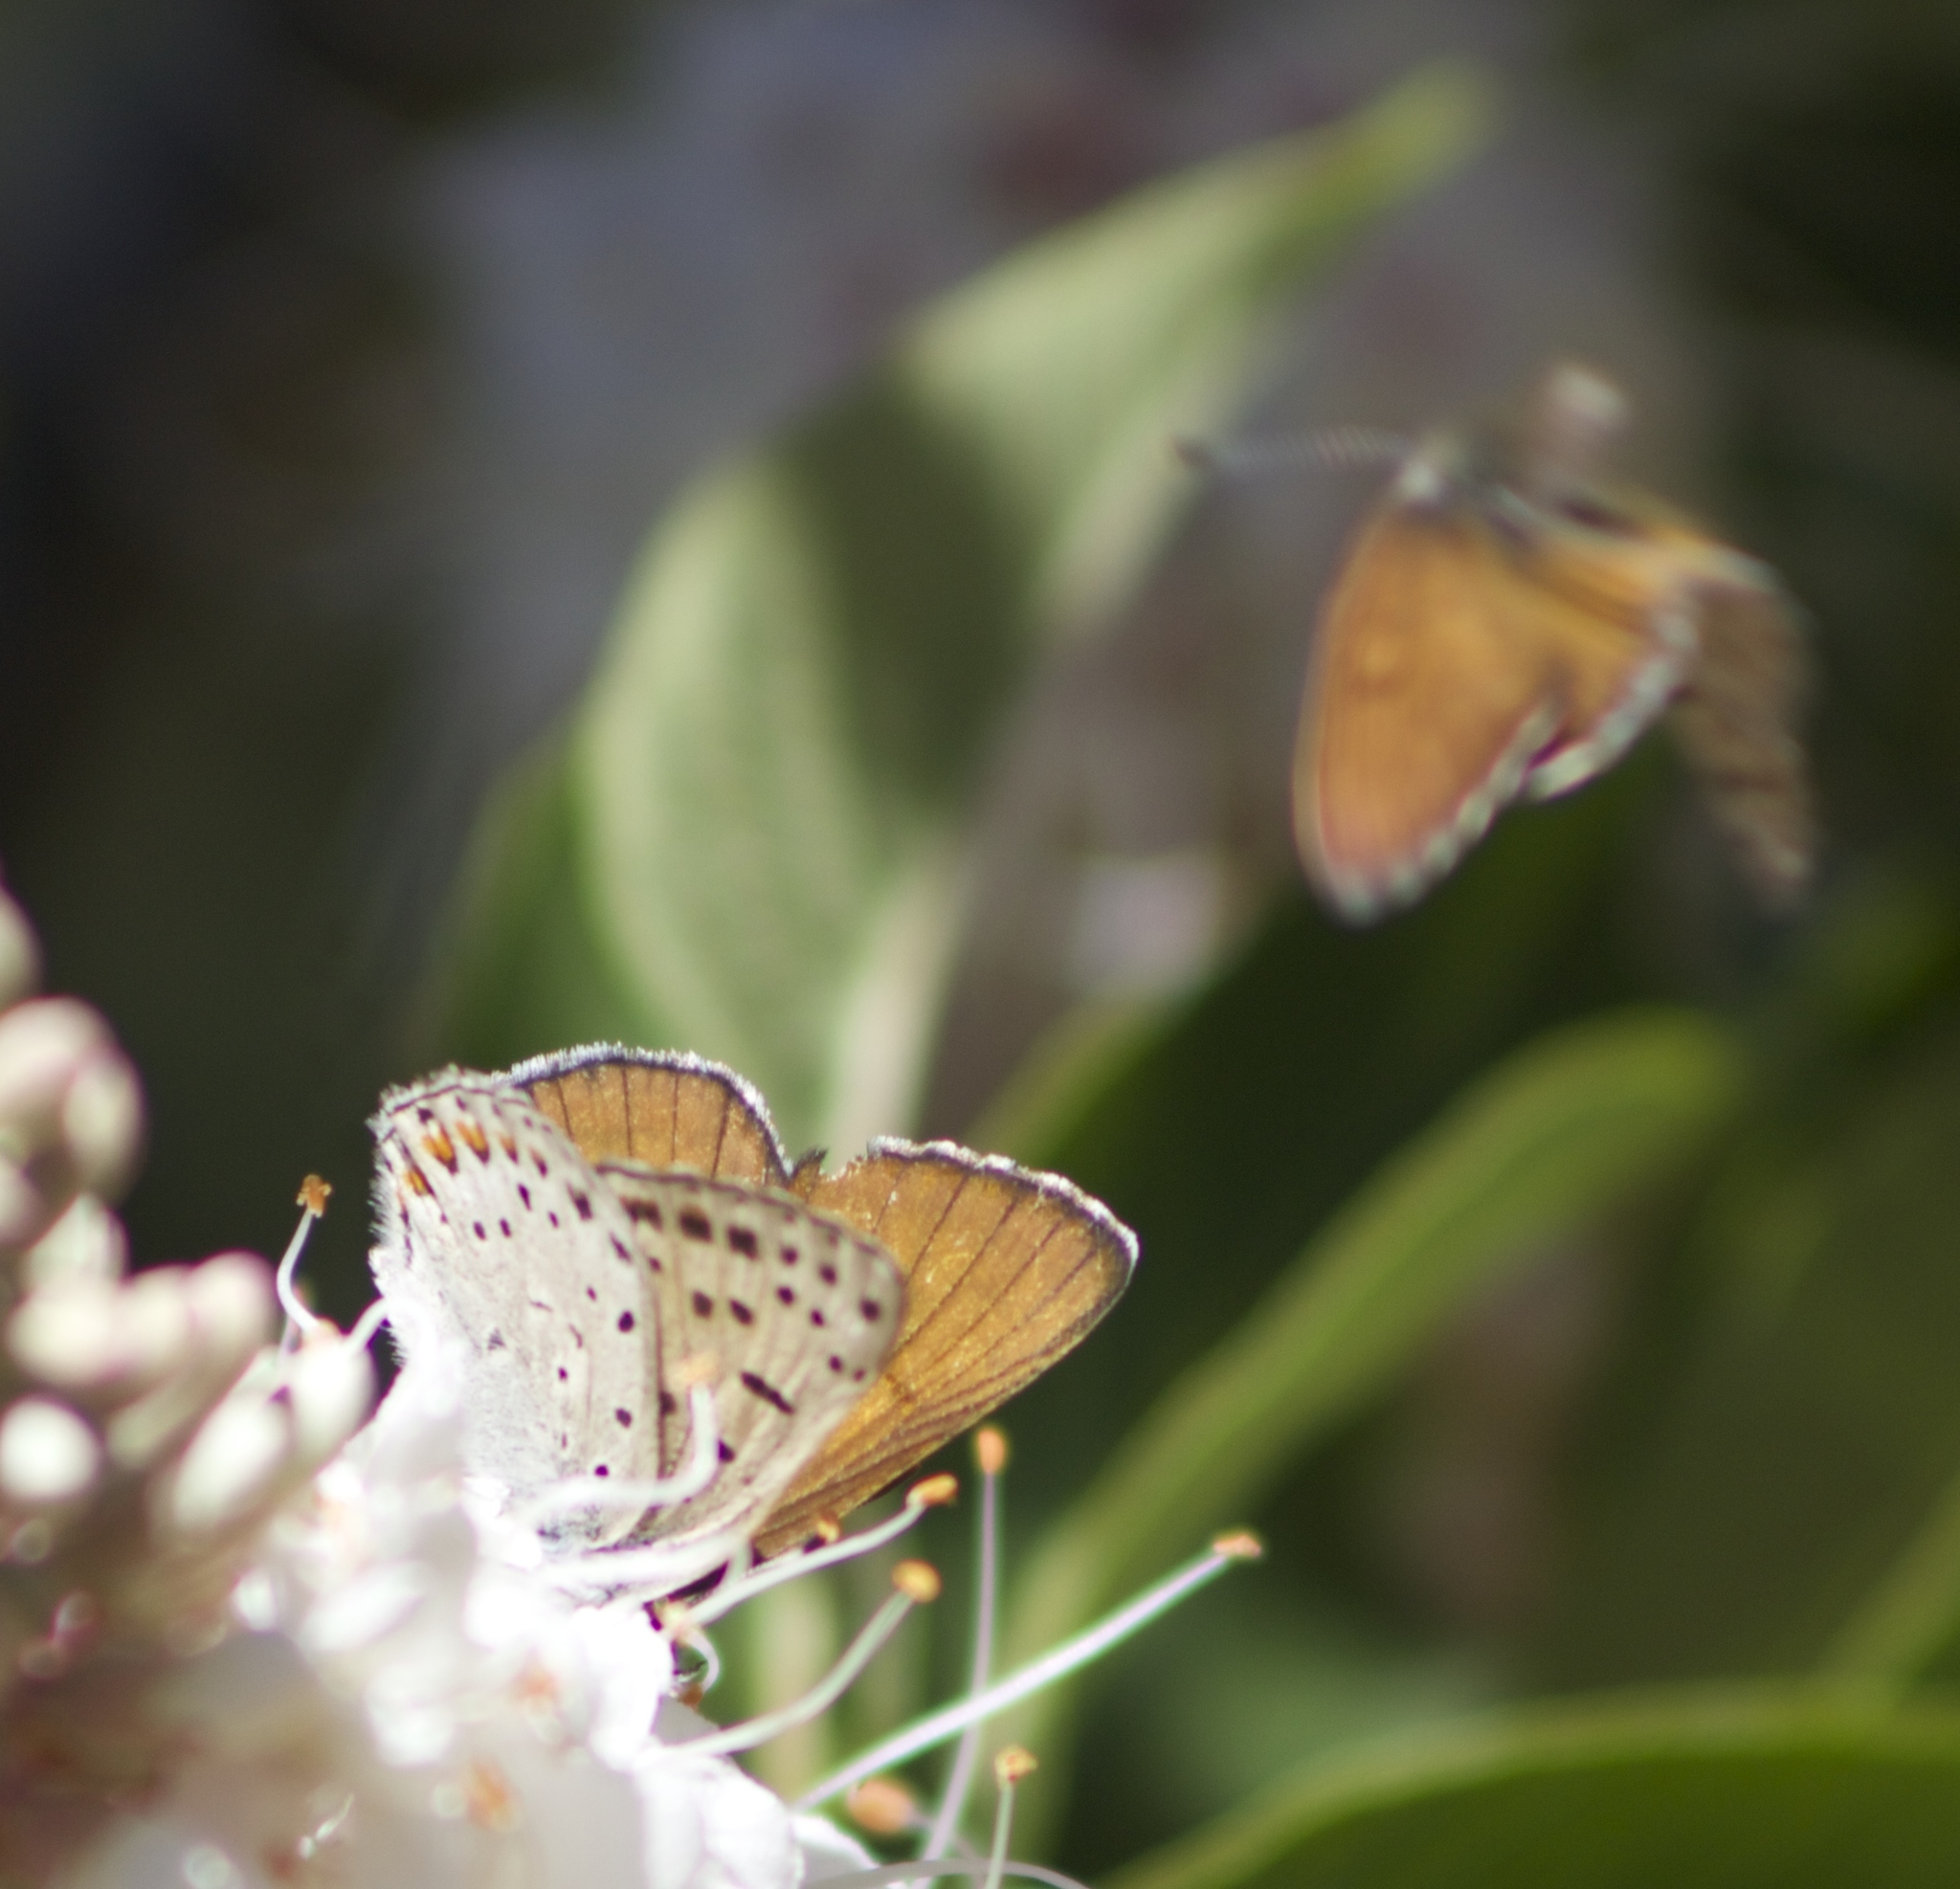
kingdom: Animalia
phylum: Arthropoda
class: Insecta
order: Lepidoptera
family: Lycaenidae
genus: Tharsalea
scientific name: Tharsalea gorgon
